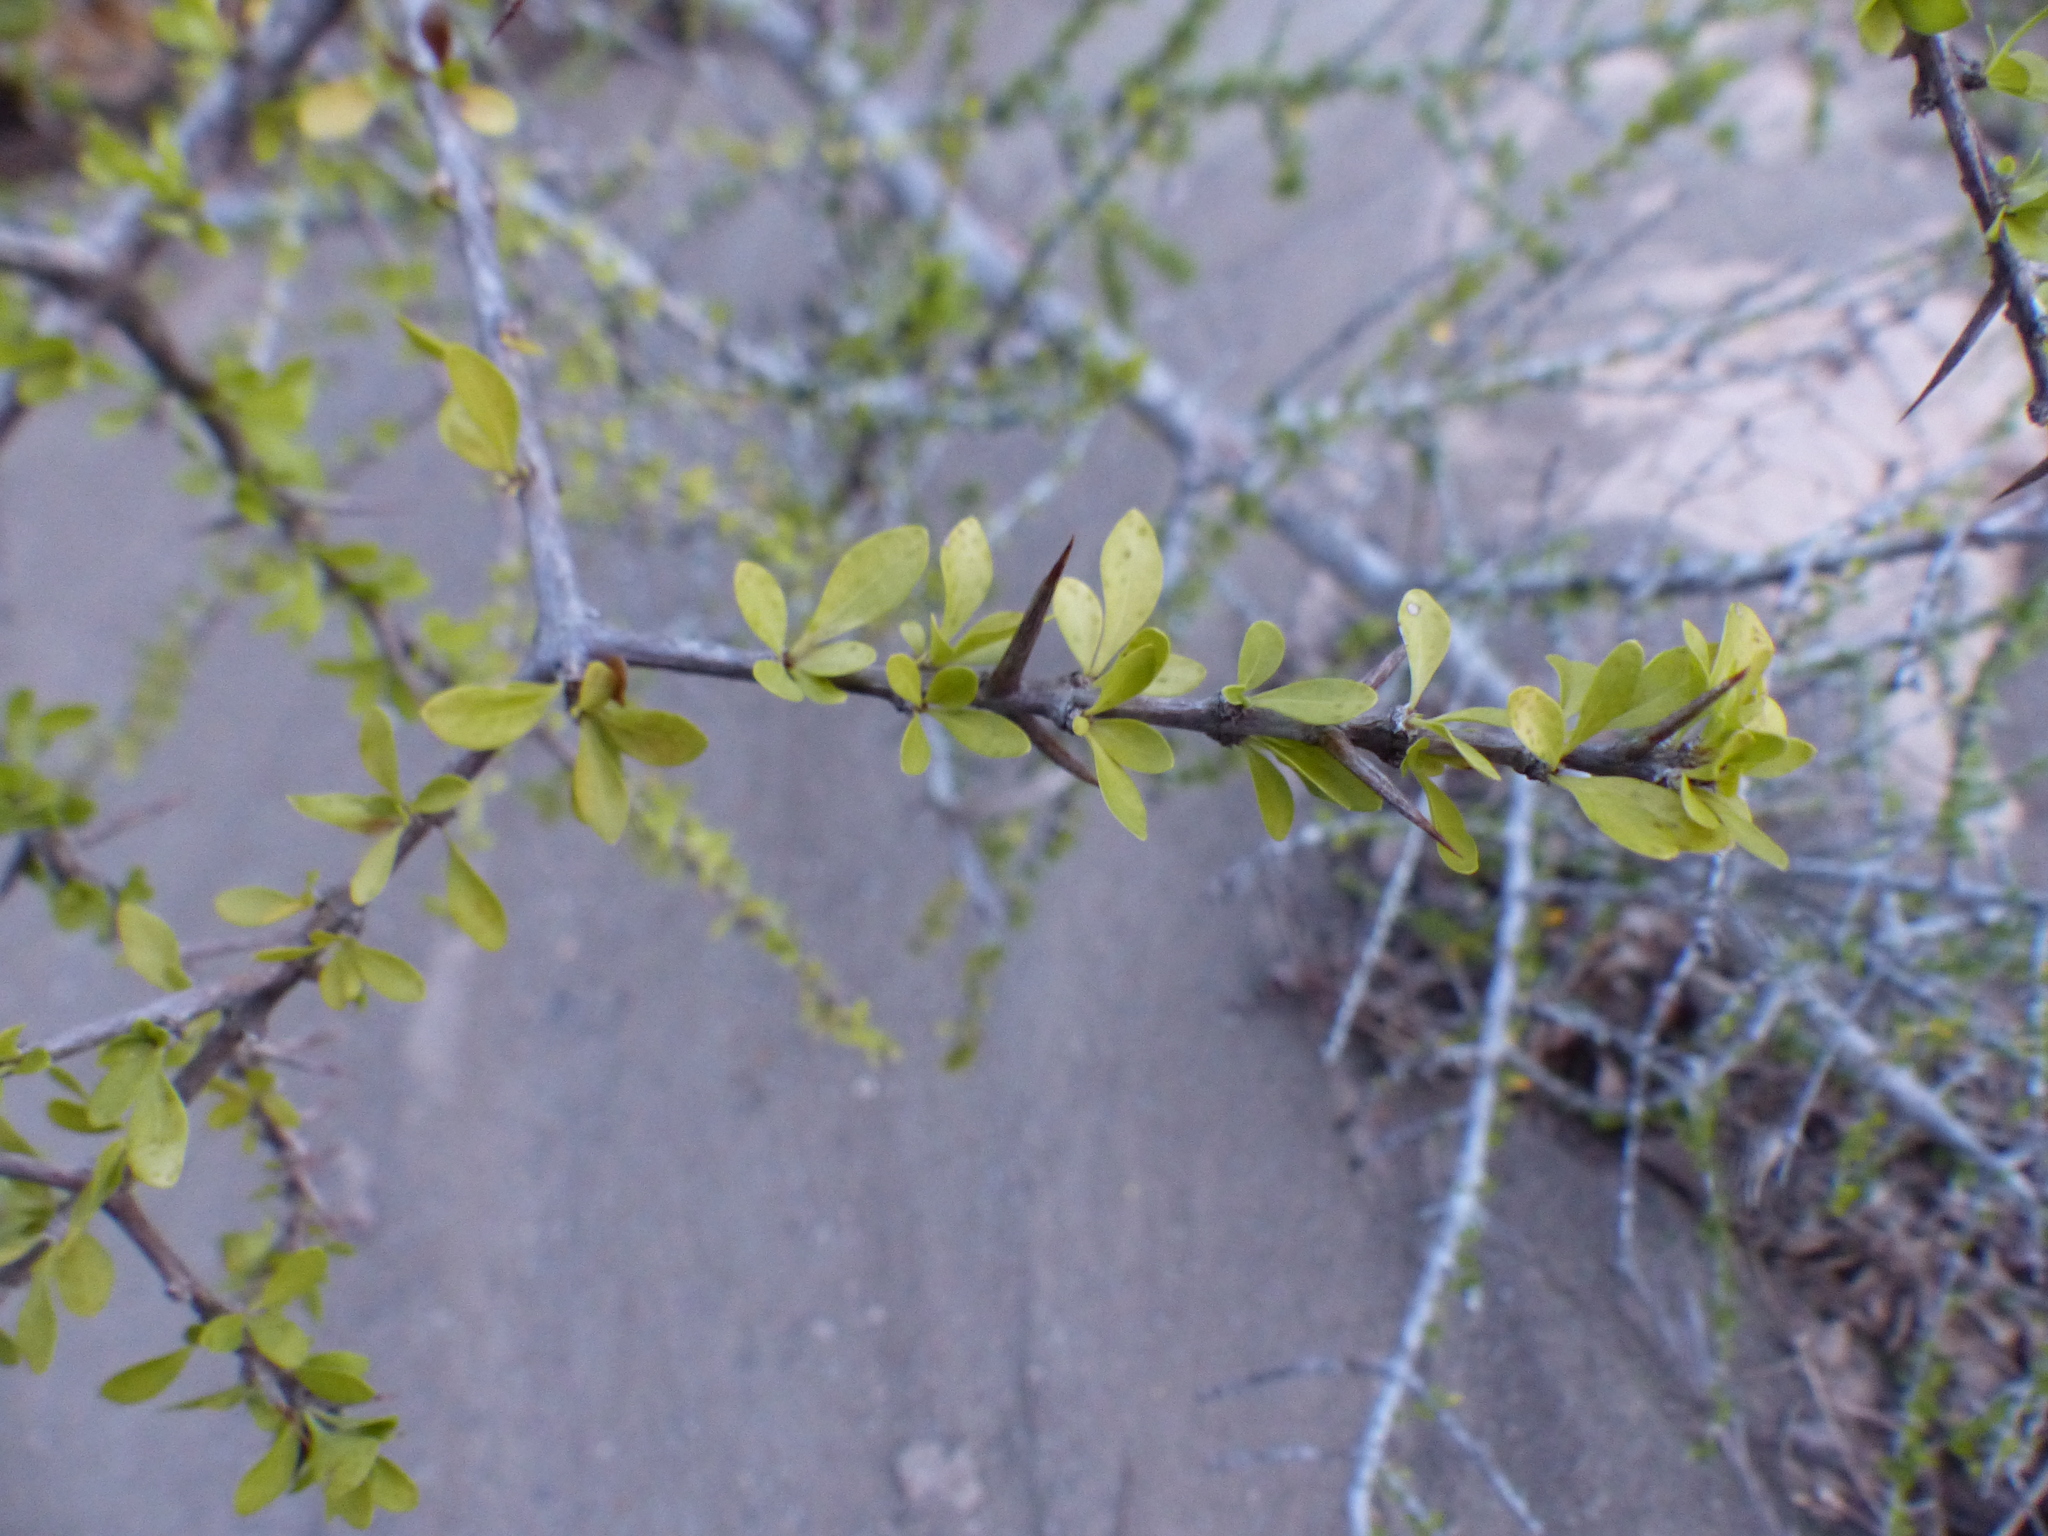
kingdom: Plantae
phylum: Tracheophyta
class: Magnoliopsida
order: Gentianales
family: Rubiaceae
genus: Randia
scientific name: Randia aculeata
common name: Inkberry
